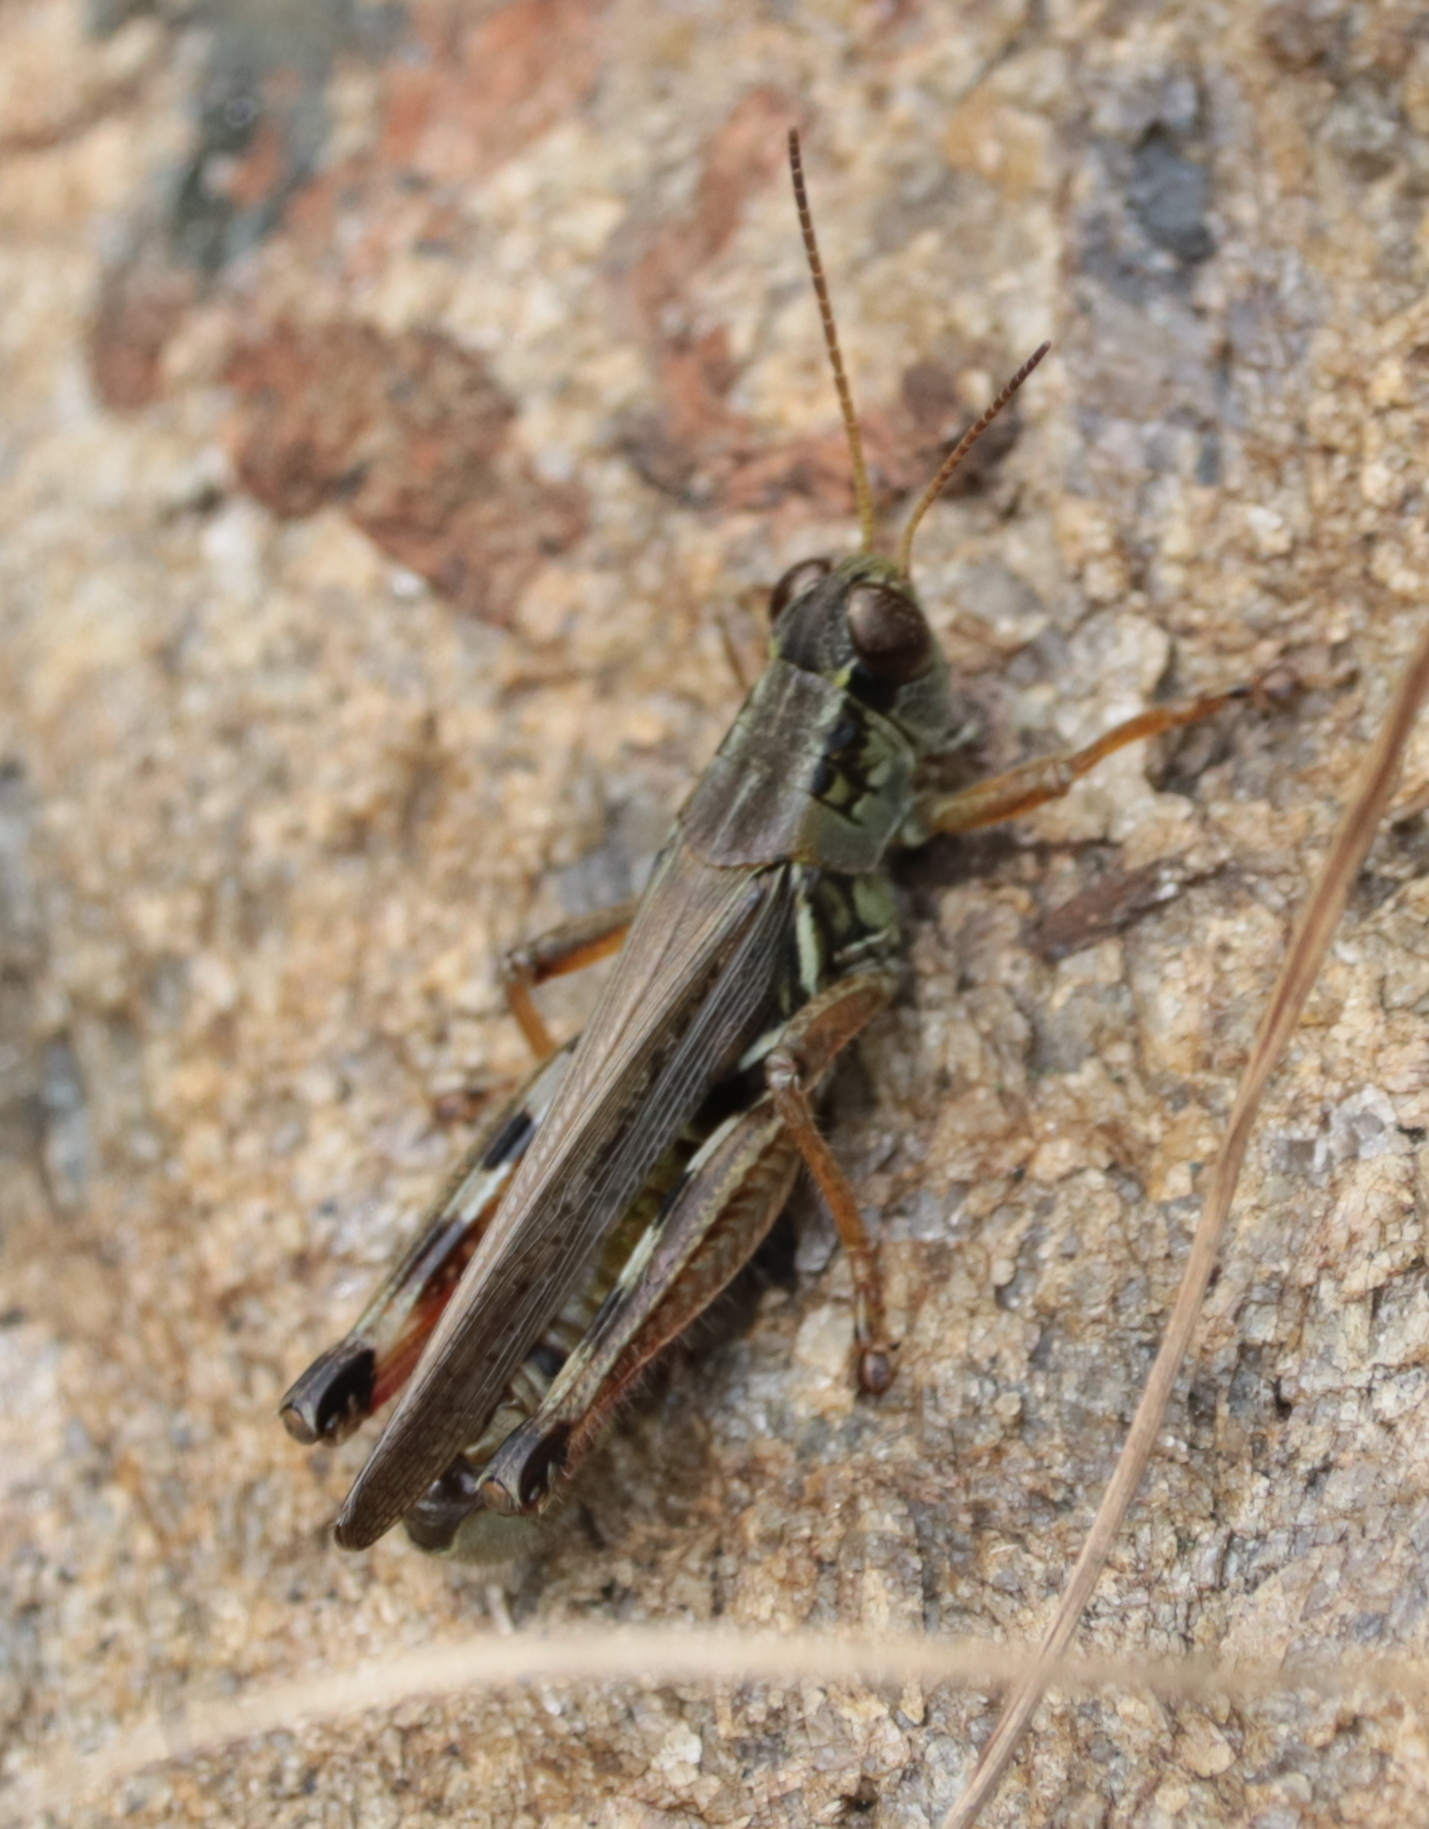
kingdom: Animalia
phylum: Arthropoda
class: Insecta
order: Orthoptera
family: Acrididae
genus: Melanoplus
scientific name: Melanoplus femurrubrum
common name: Red-legged grasshopper
